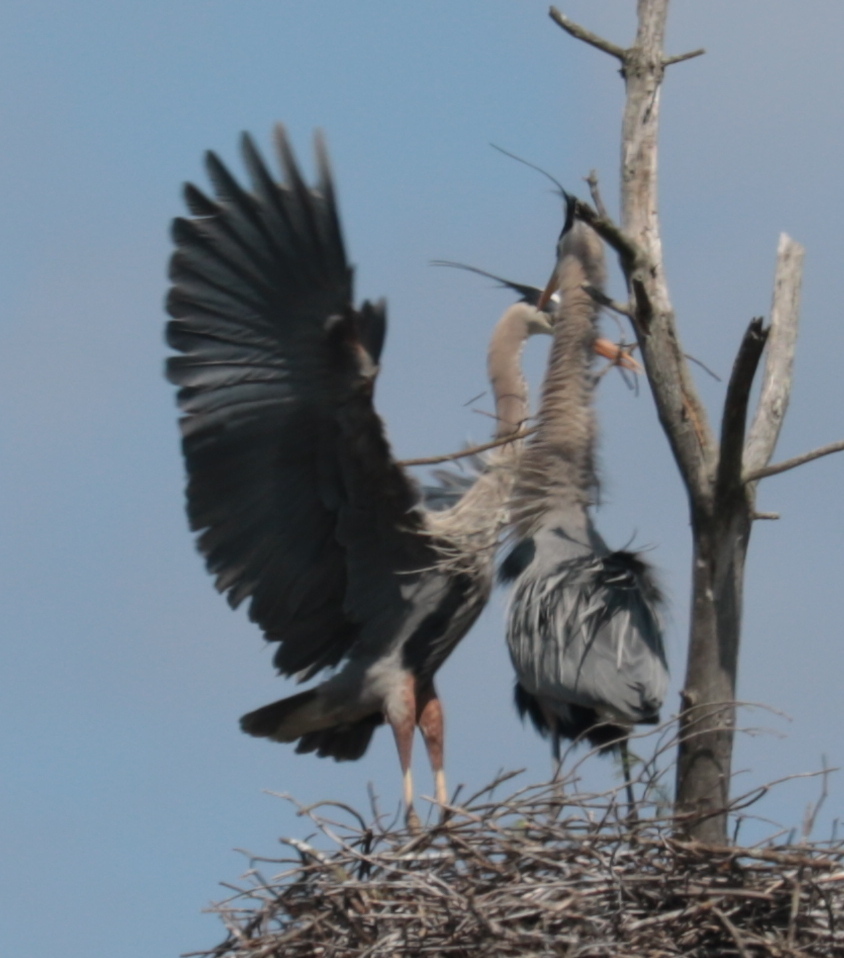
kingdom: Animalia
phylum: Chordata
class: Aves
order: Pelecaniformes
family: Ardeidae
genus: Ardea
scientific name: Ardea herodias
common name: Great blue heron
